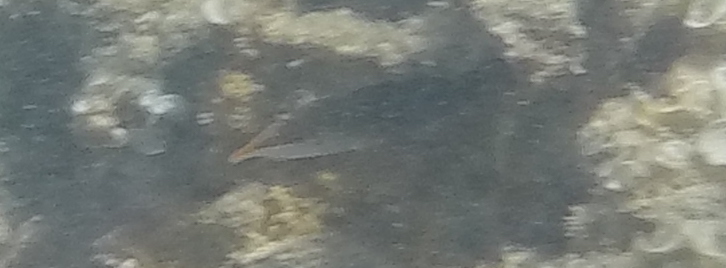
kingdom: Animalia
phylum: Chordata
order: Perciformes
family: Labridae
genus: Gomphosus
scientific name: Gomphosus varius
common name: Bird wrasse
